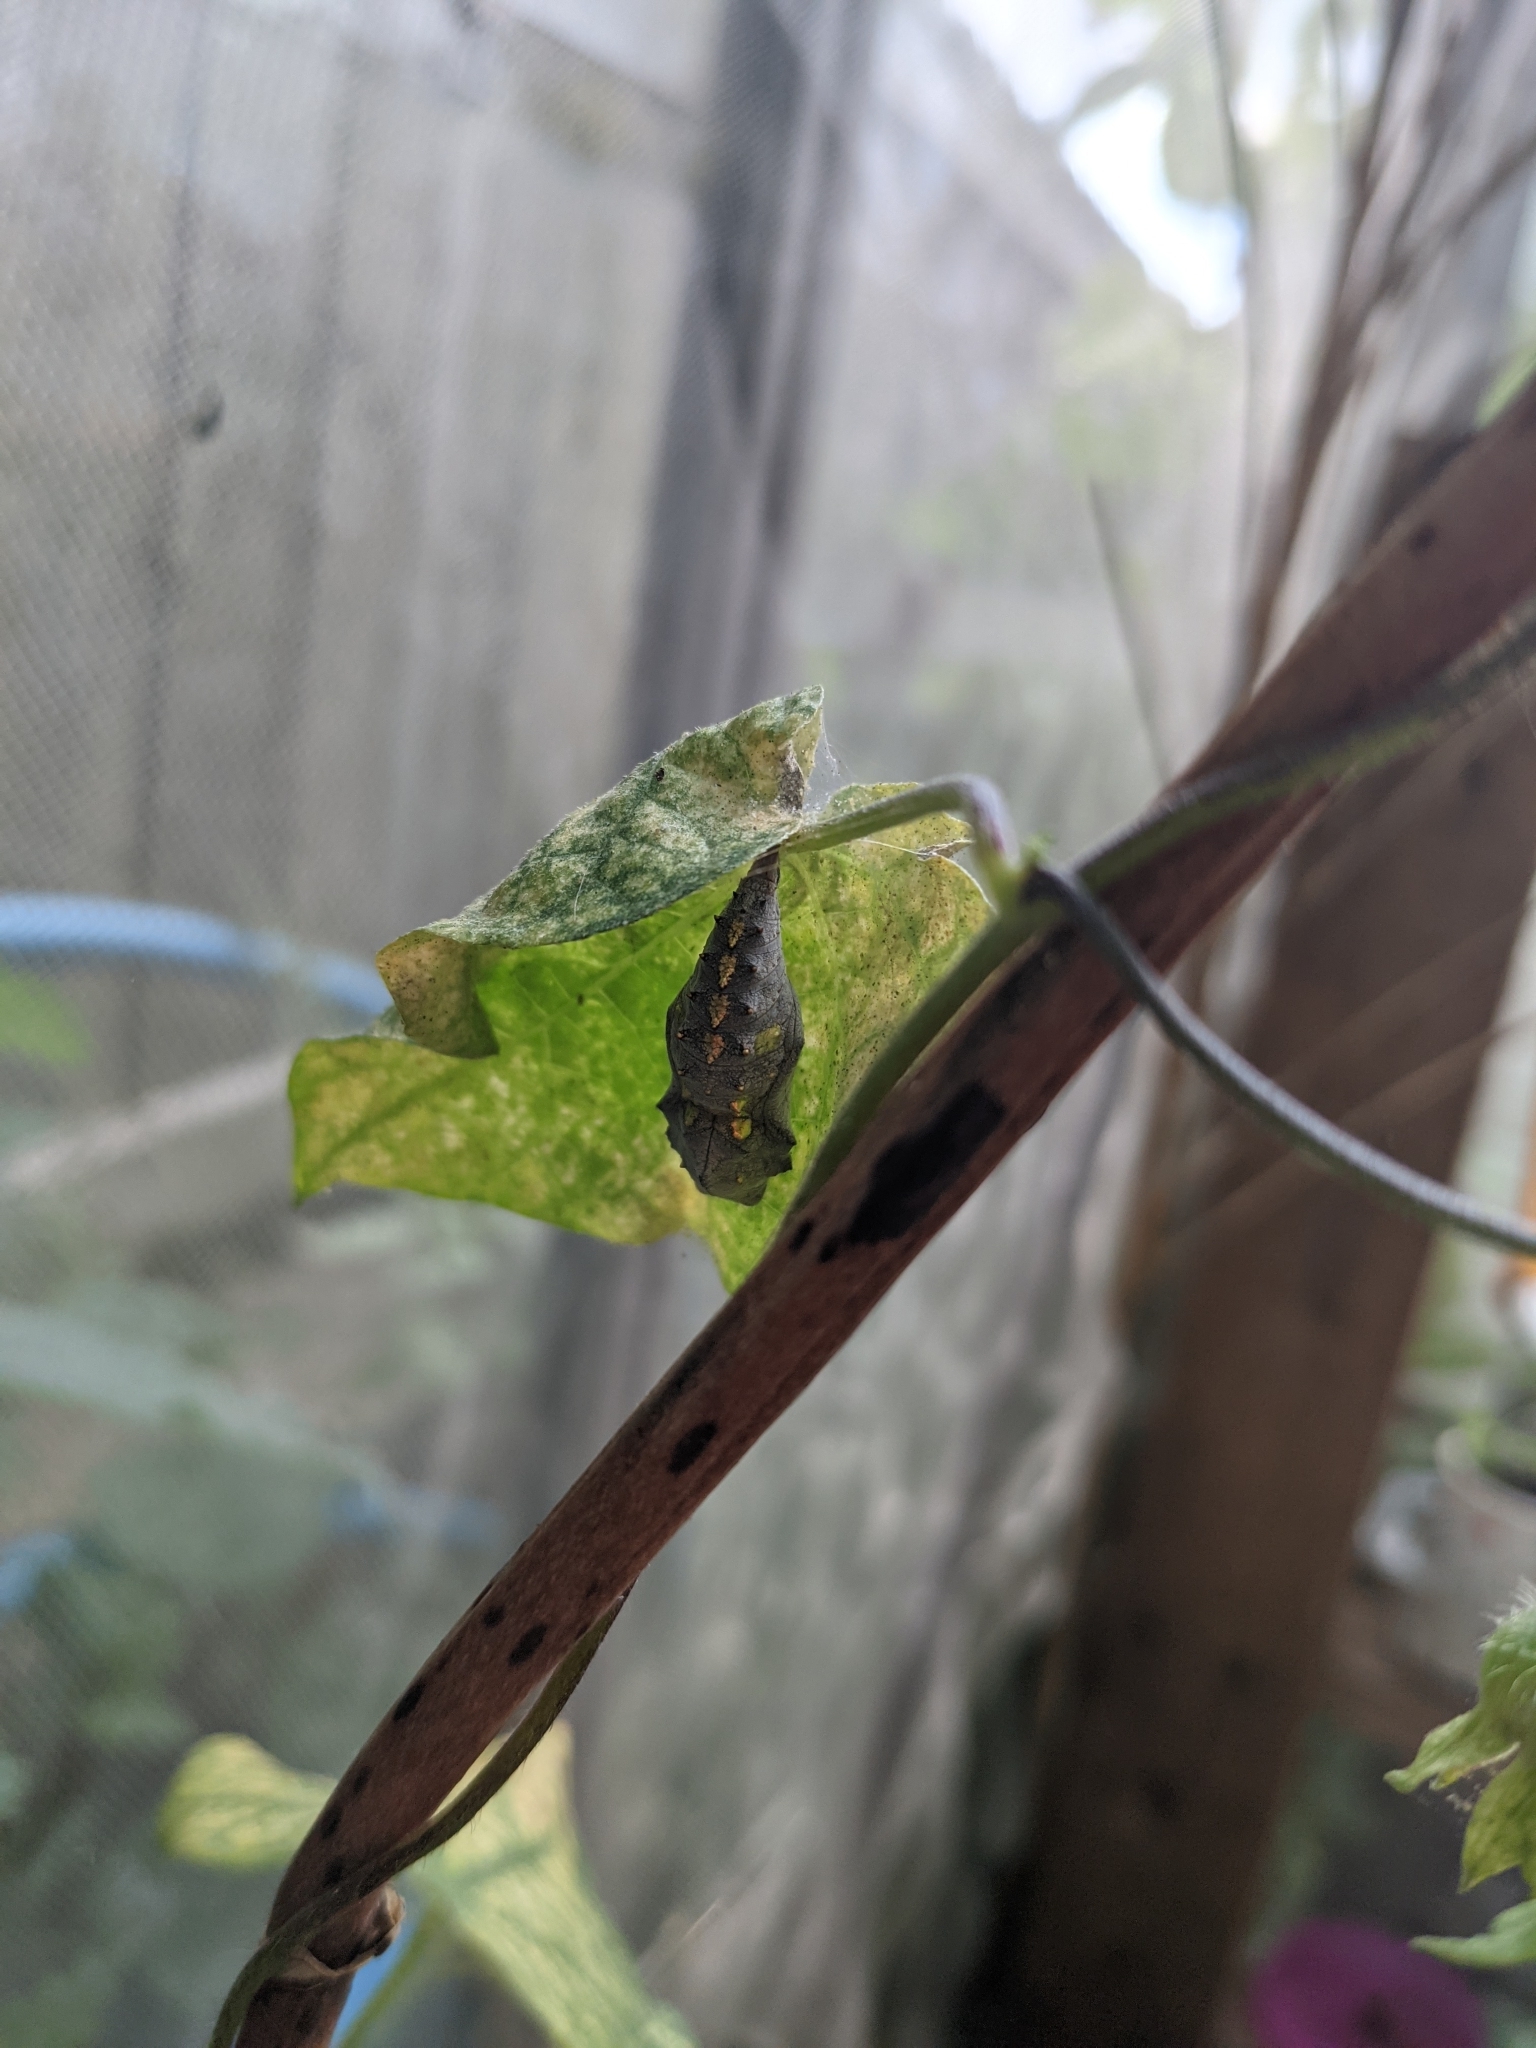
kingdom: Animalia
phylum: Arthropoda
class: Insecta
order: Lepidoptera
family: Nymphalidae
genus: Vanessa
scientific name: Vanessa atalanta
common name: Red admiral
